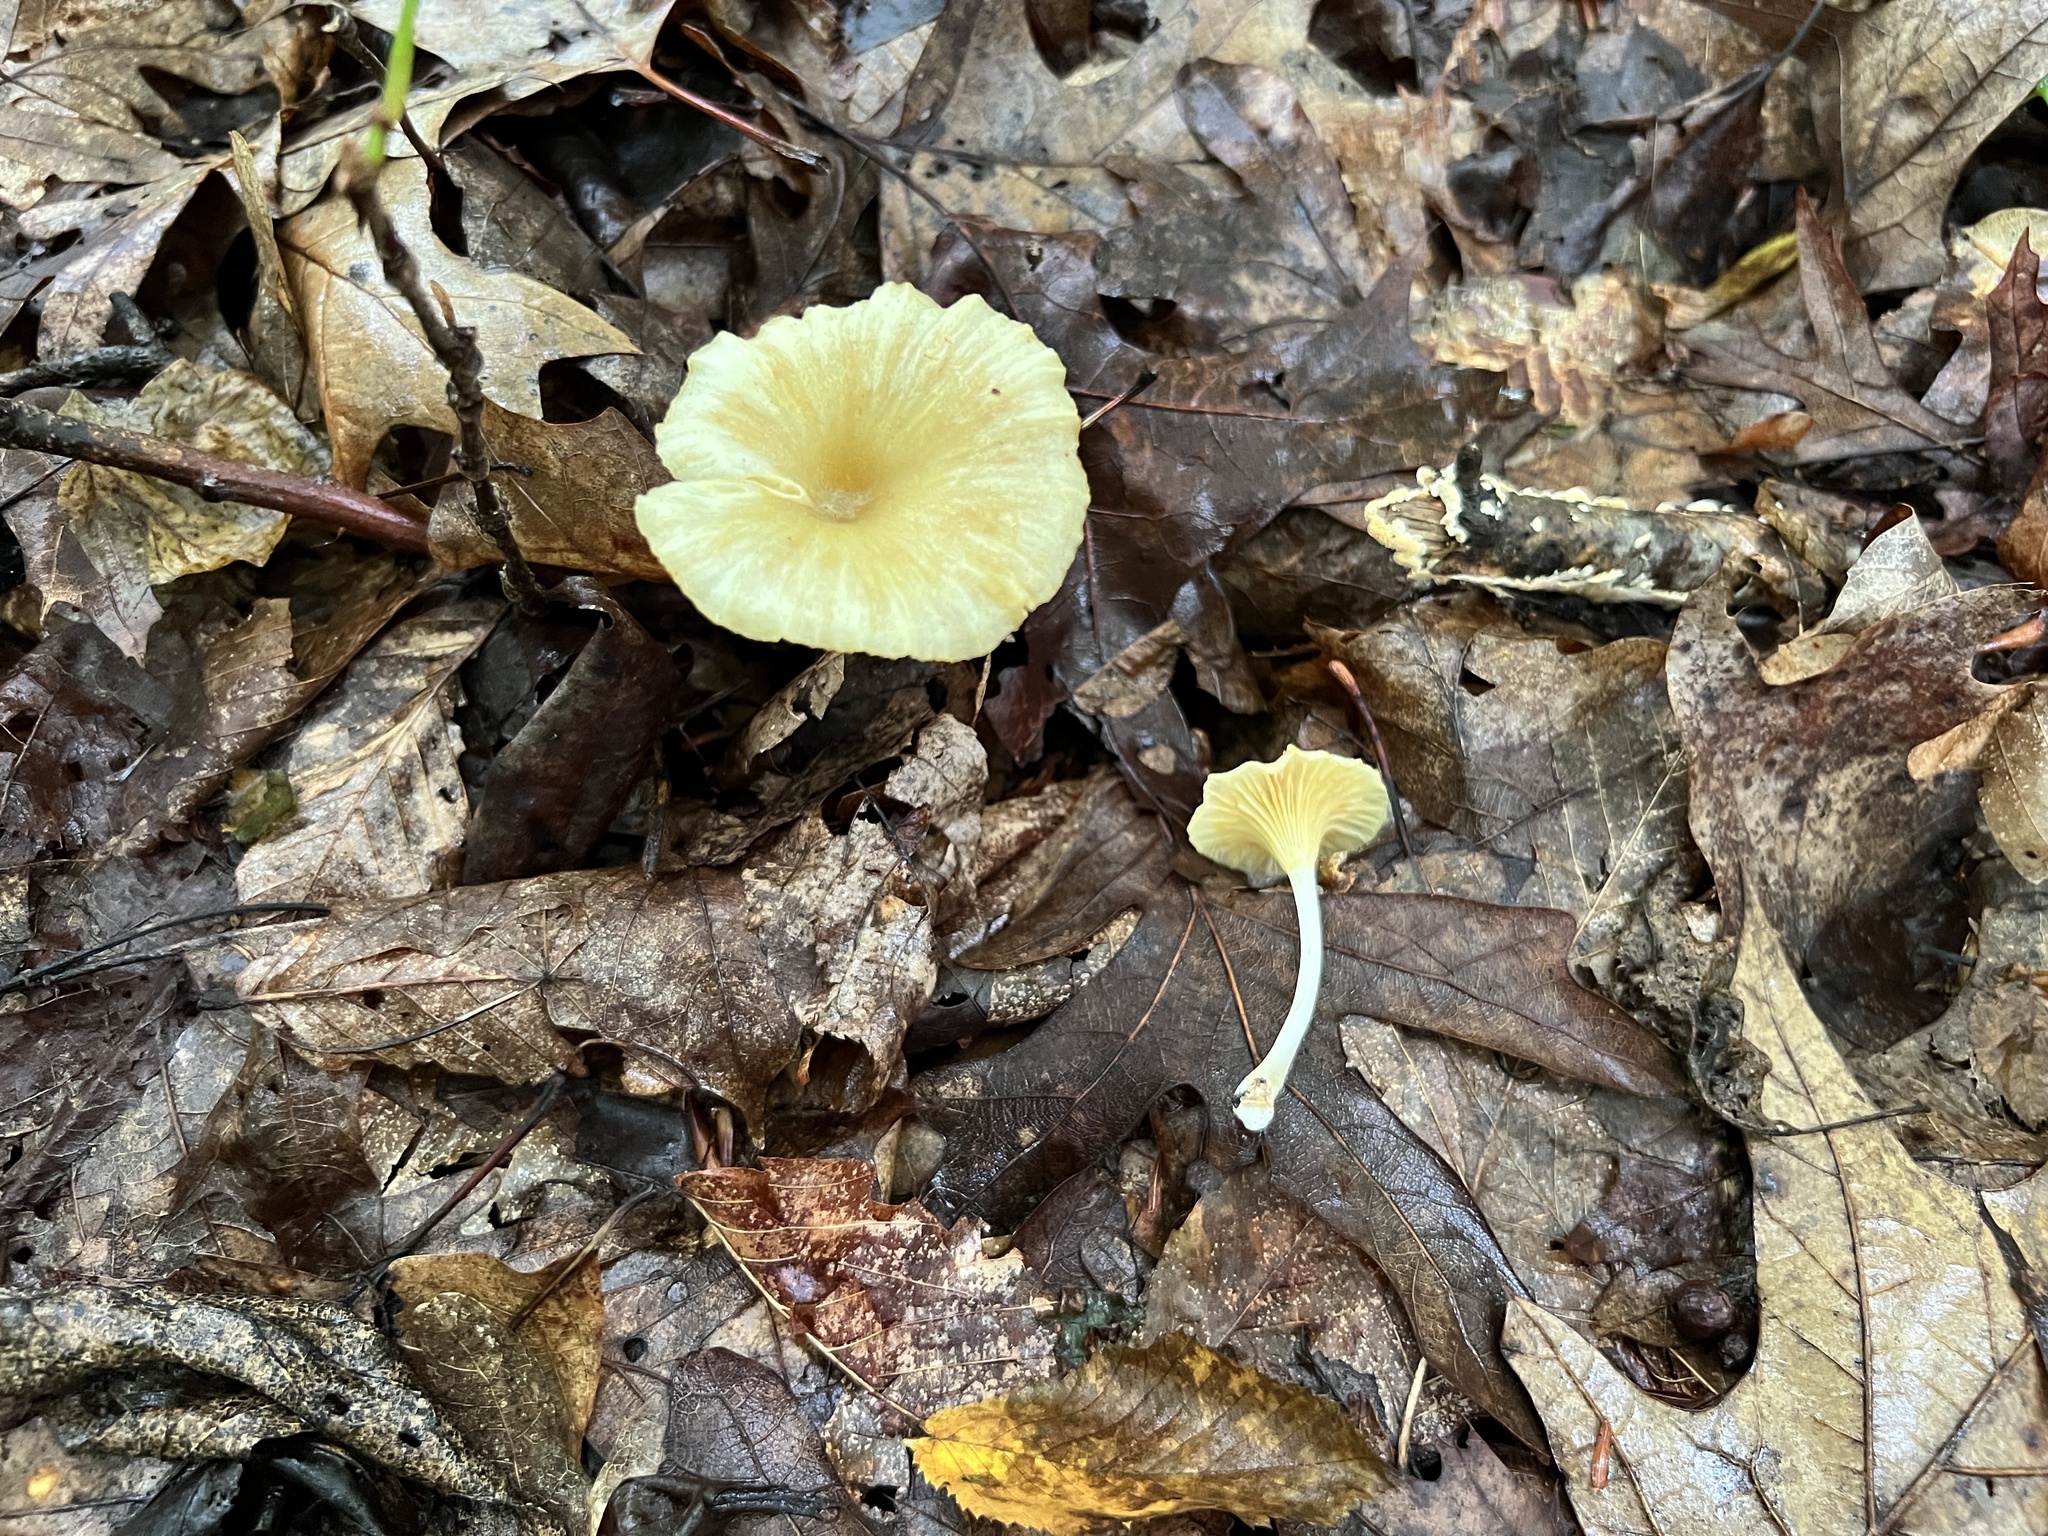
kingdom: Fungi
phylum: Basidiomycota
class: Agaricomycetes
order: Agaricales
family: Marasmiaceae
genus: Gerronema
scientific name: Gerronema strombodes
